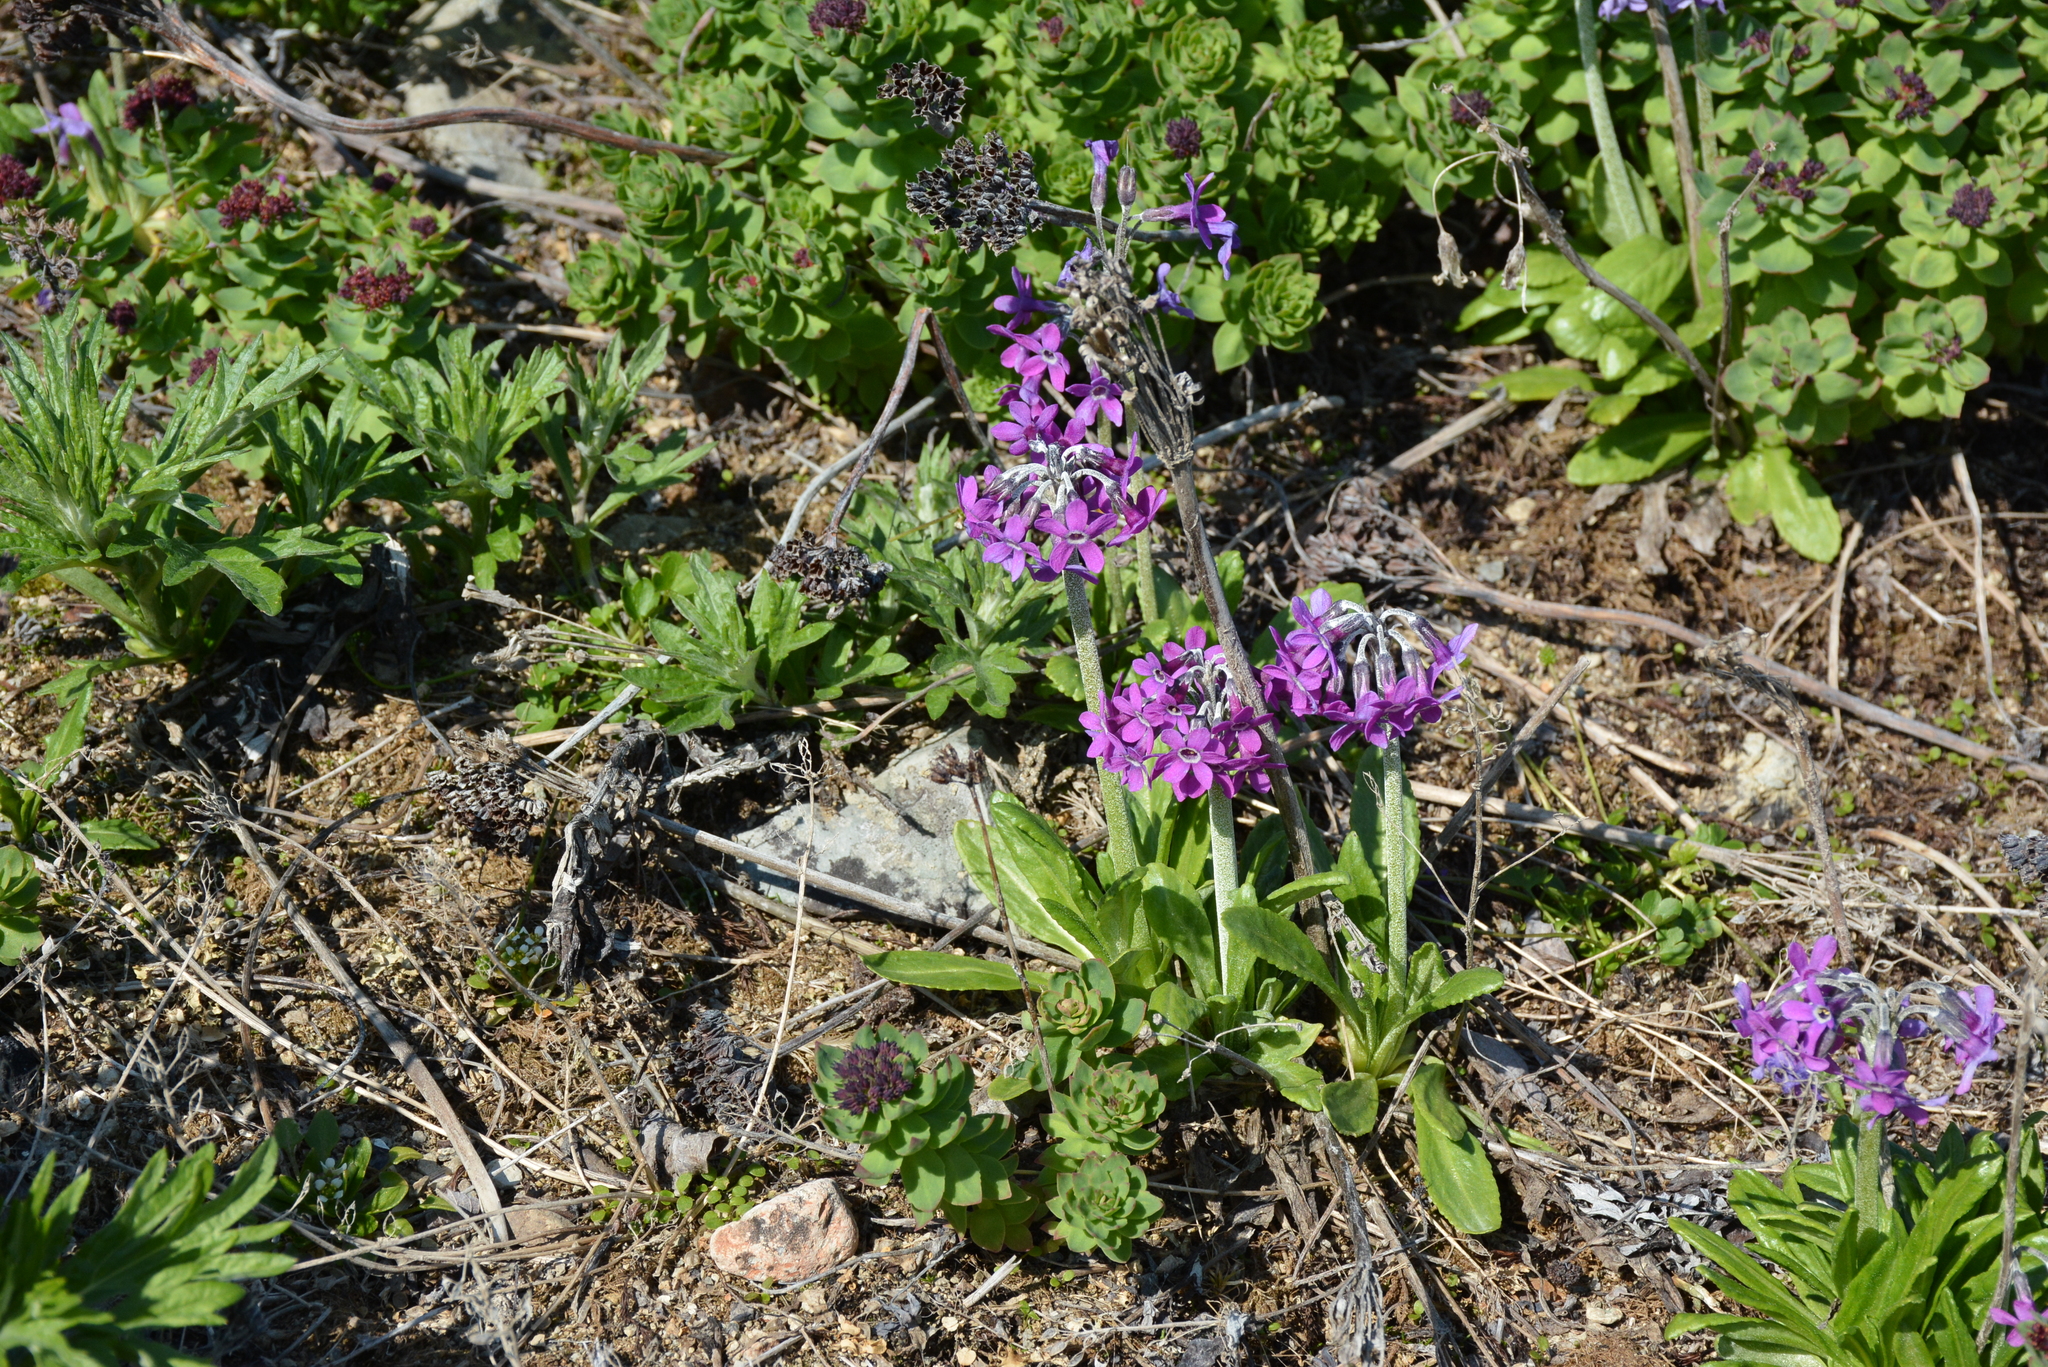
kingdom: Plantae
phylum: Tracheophyta
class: Magnoliopsida
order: Ericales
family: Primulaceae
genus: Primula
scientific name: Primula pumila
